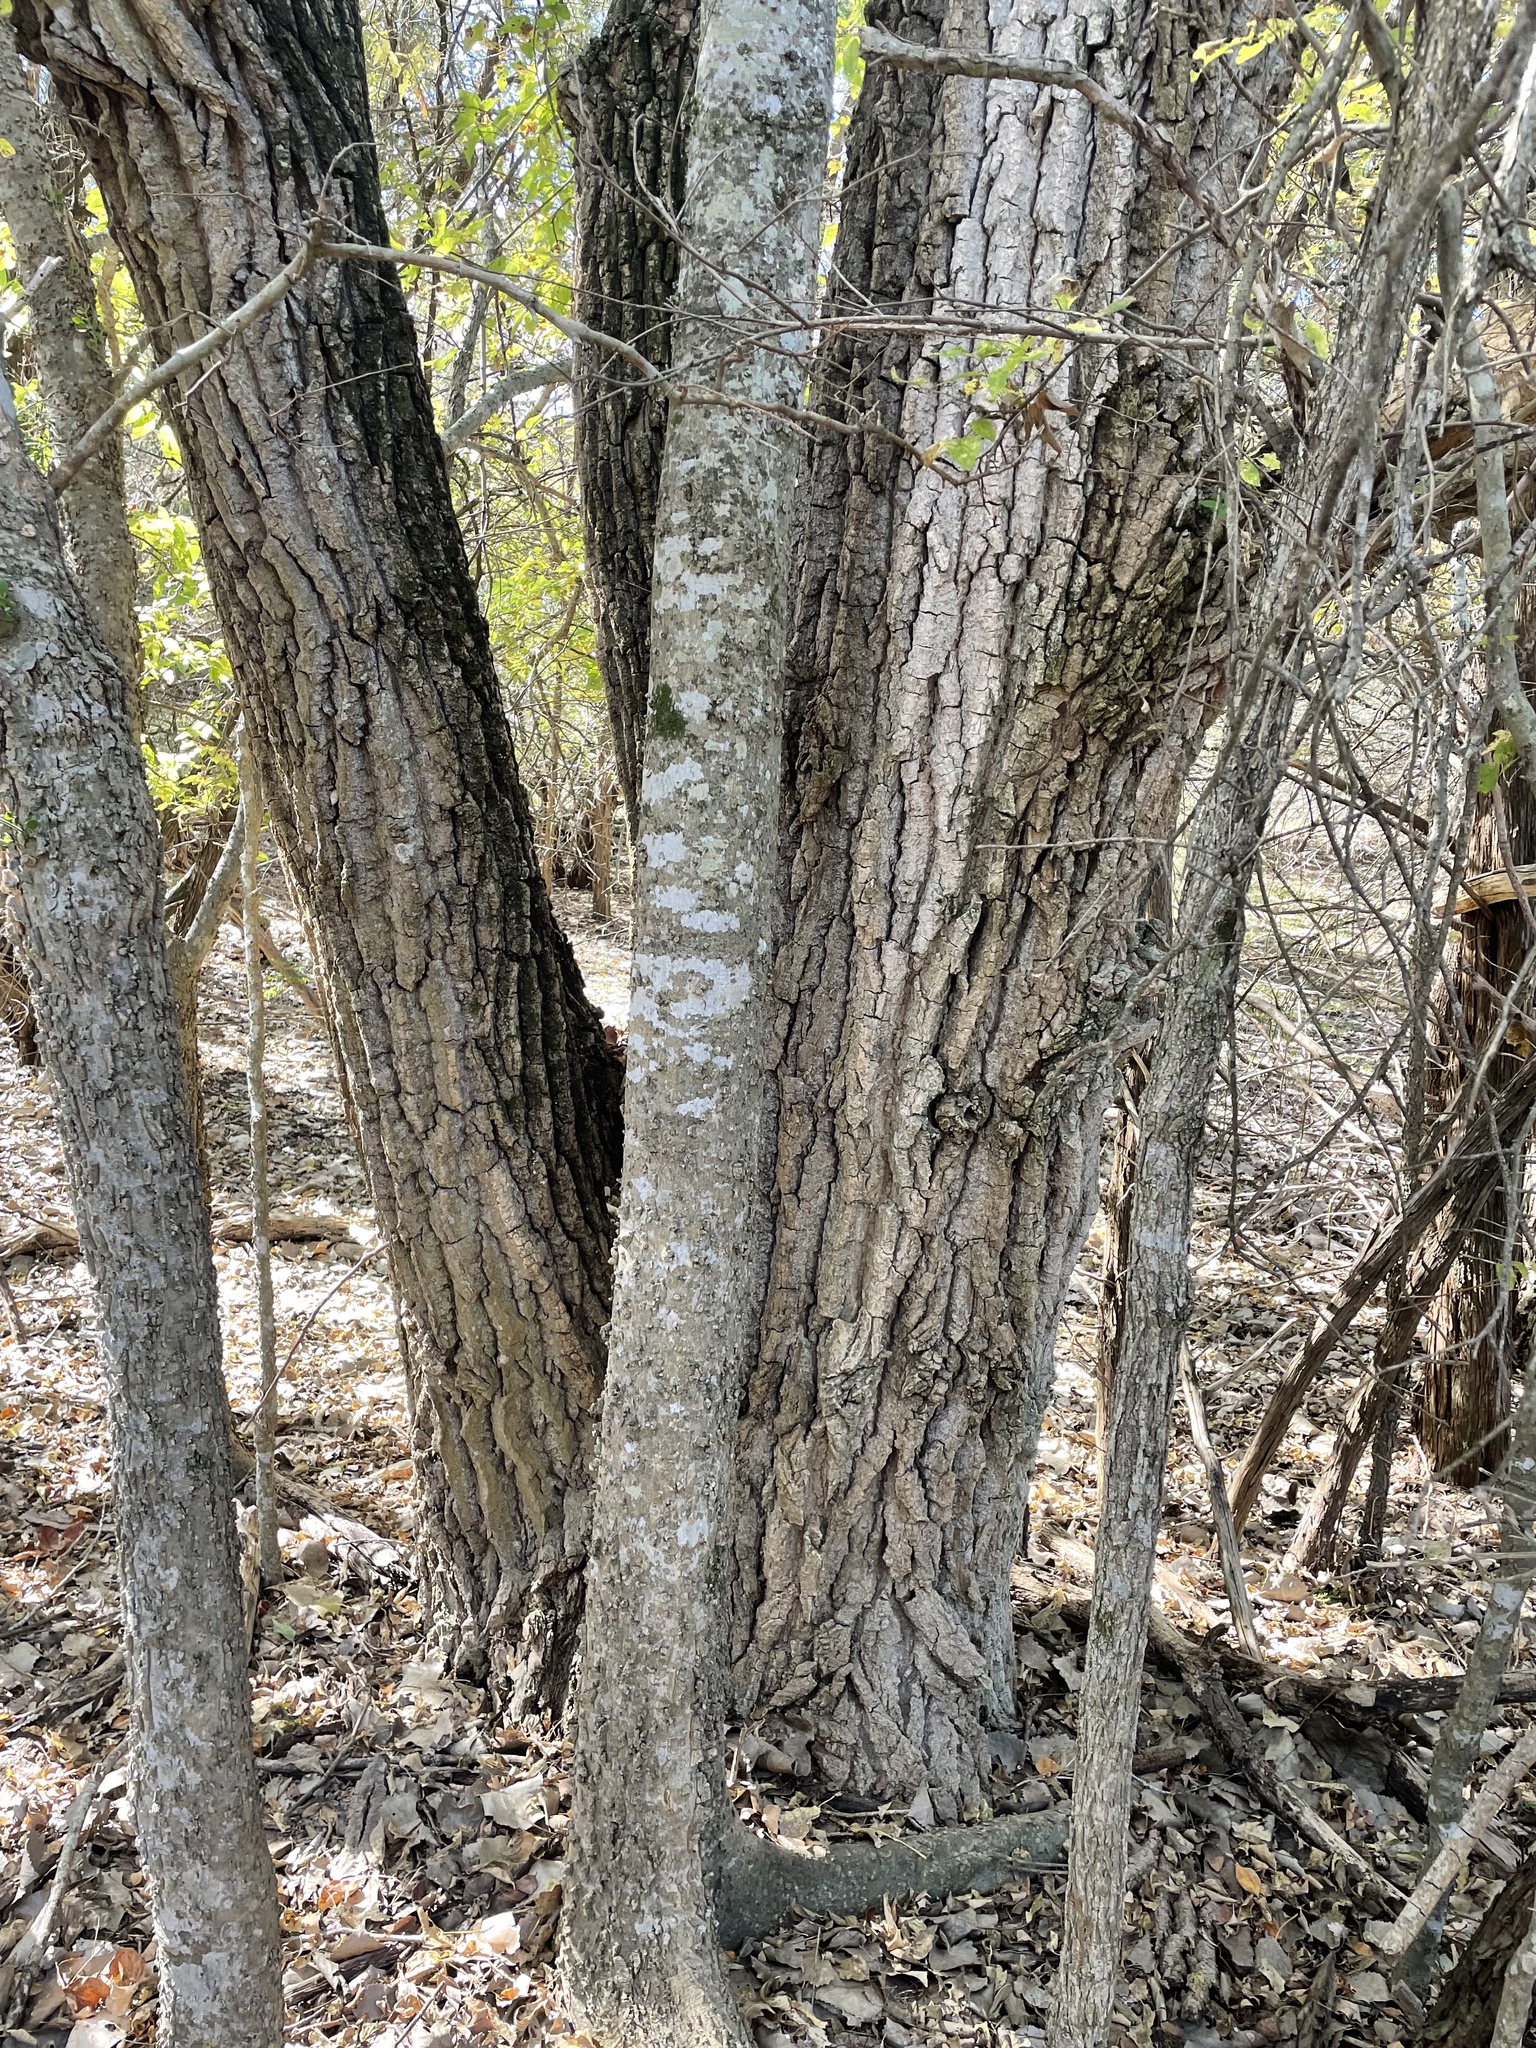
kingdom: Plantae
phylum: Tracheophyta
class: Magnoliopsida
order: Malpighiales
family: Salicaceae
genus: Populus
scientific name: Populus deltoides
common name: Eastern cottonwood
